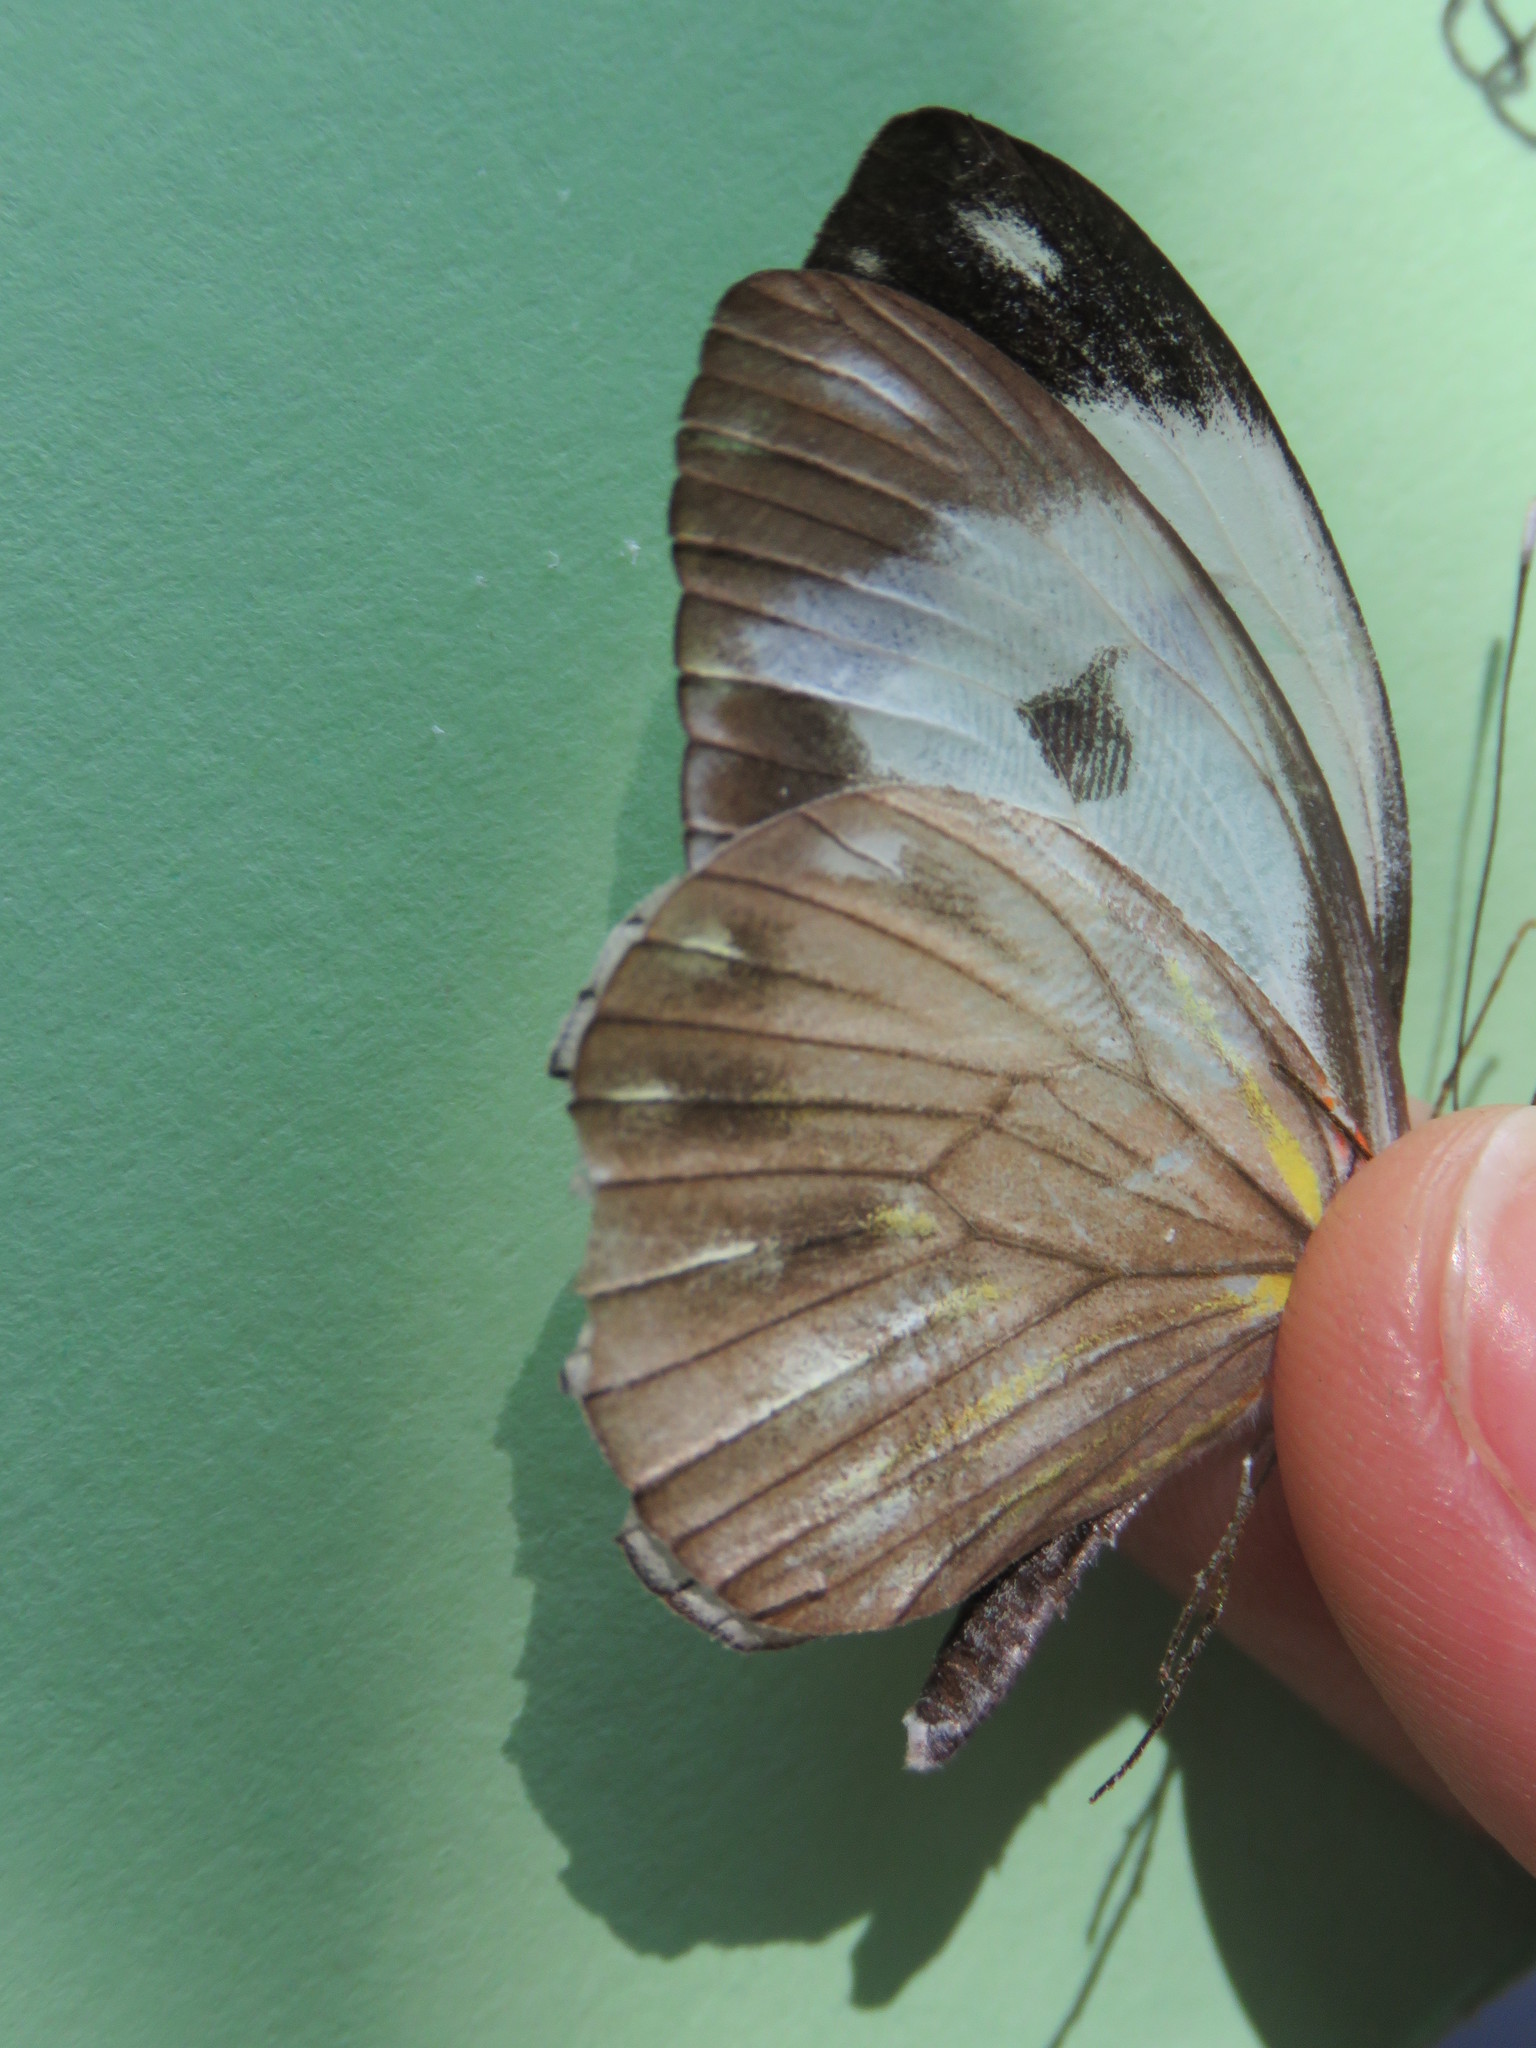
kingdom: Animalia
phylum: Arthropoda
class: Insecta
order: Lepidoptera
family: Pieridae
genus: Pieriballia
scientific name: Pieriballia viardi
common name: Painted white
